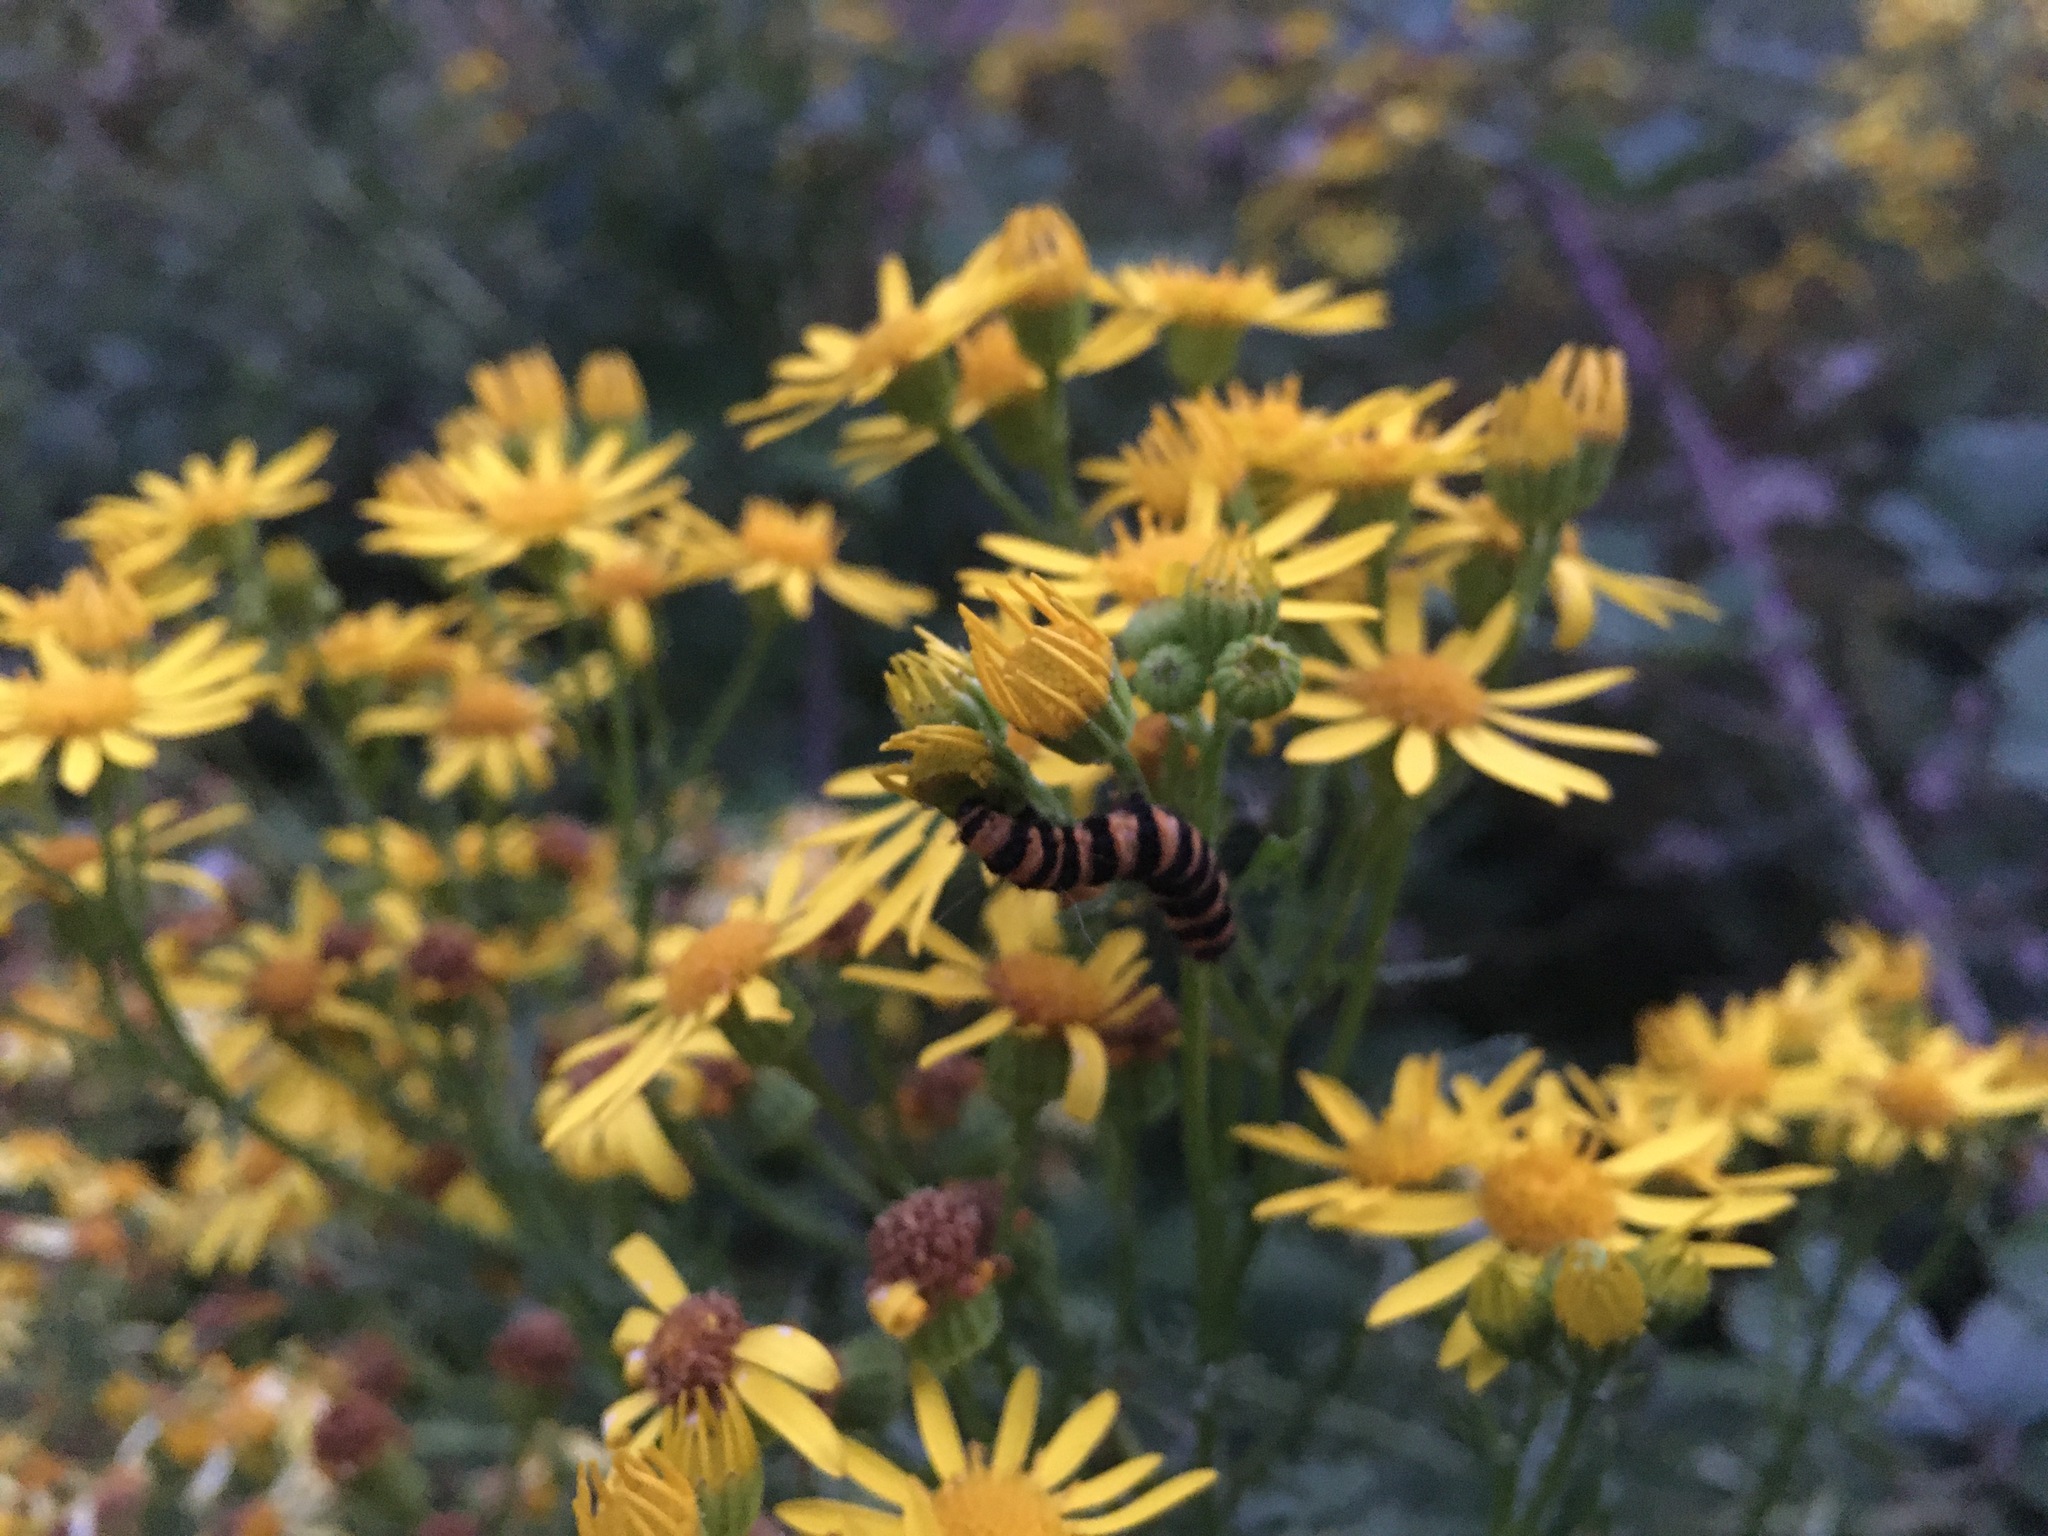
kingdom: Plantae
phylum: Tracheophyta
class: Magnoliopsida
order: Asterales
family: Asteraceae
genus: Jacobaea
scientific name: Jacobaea vulgaris
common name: Stinking willie
